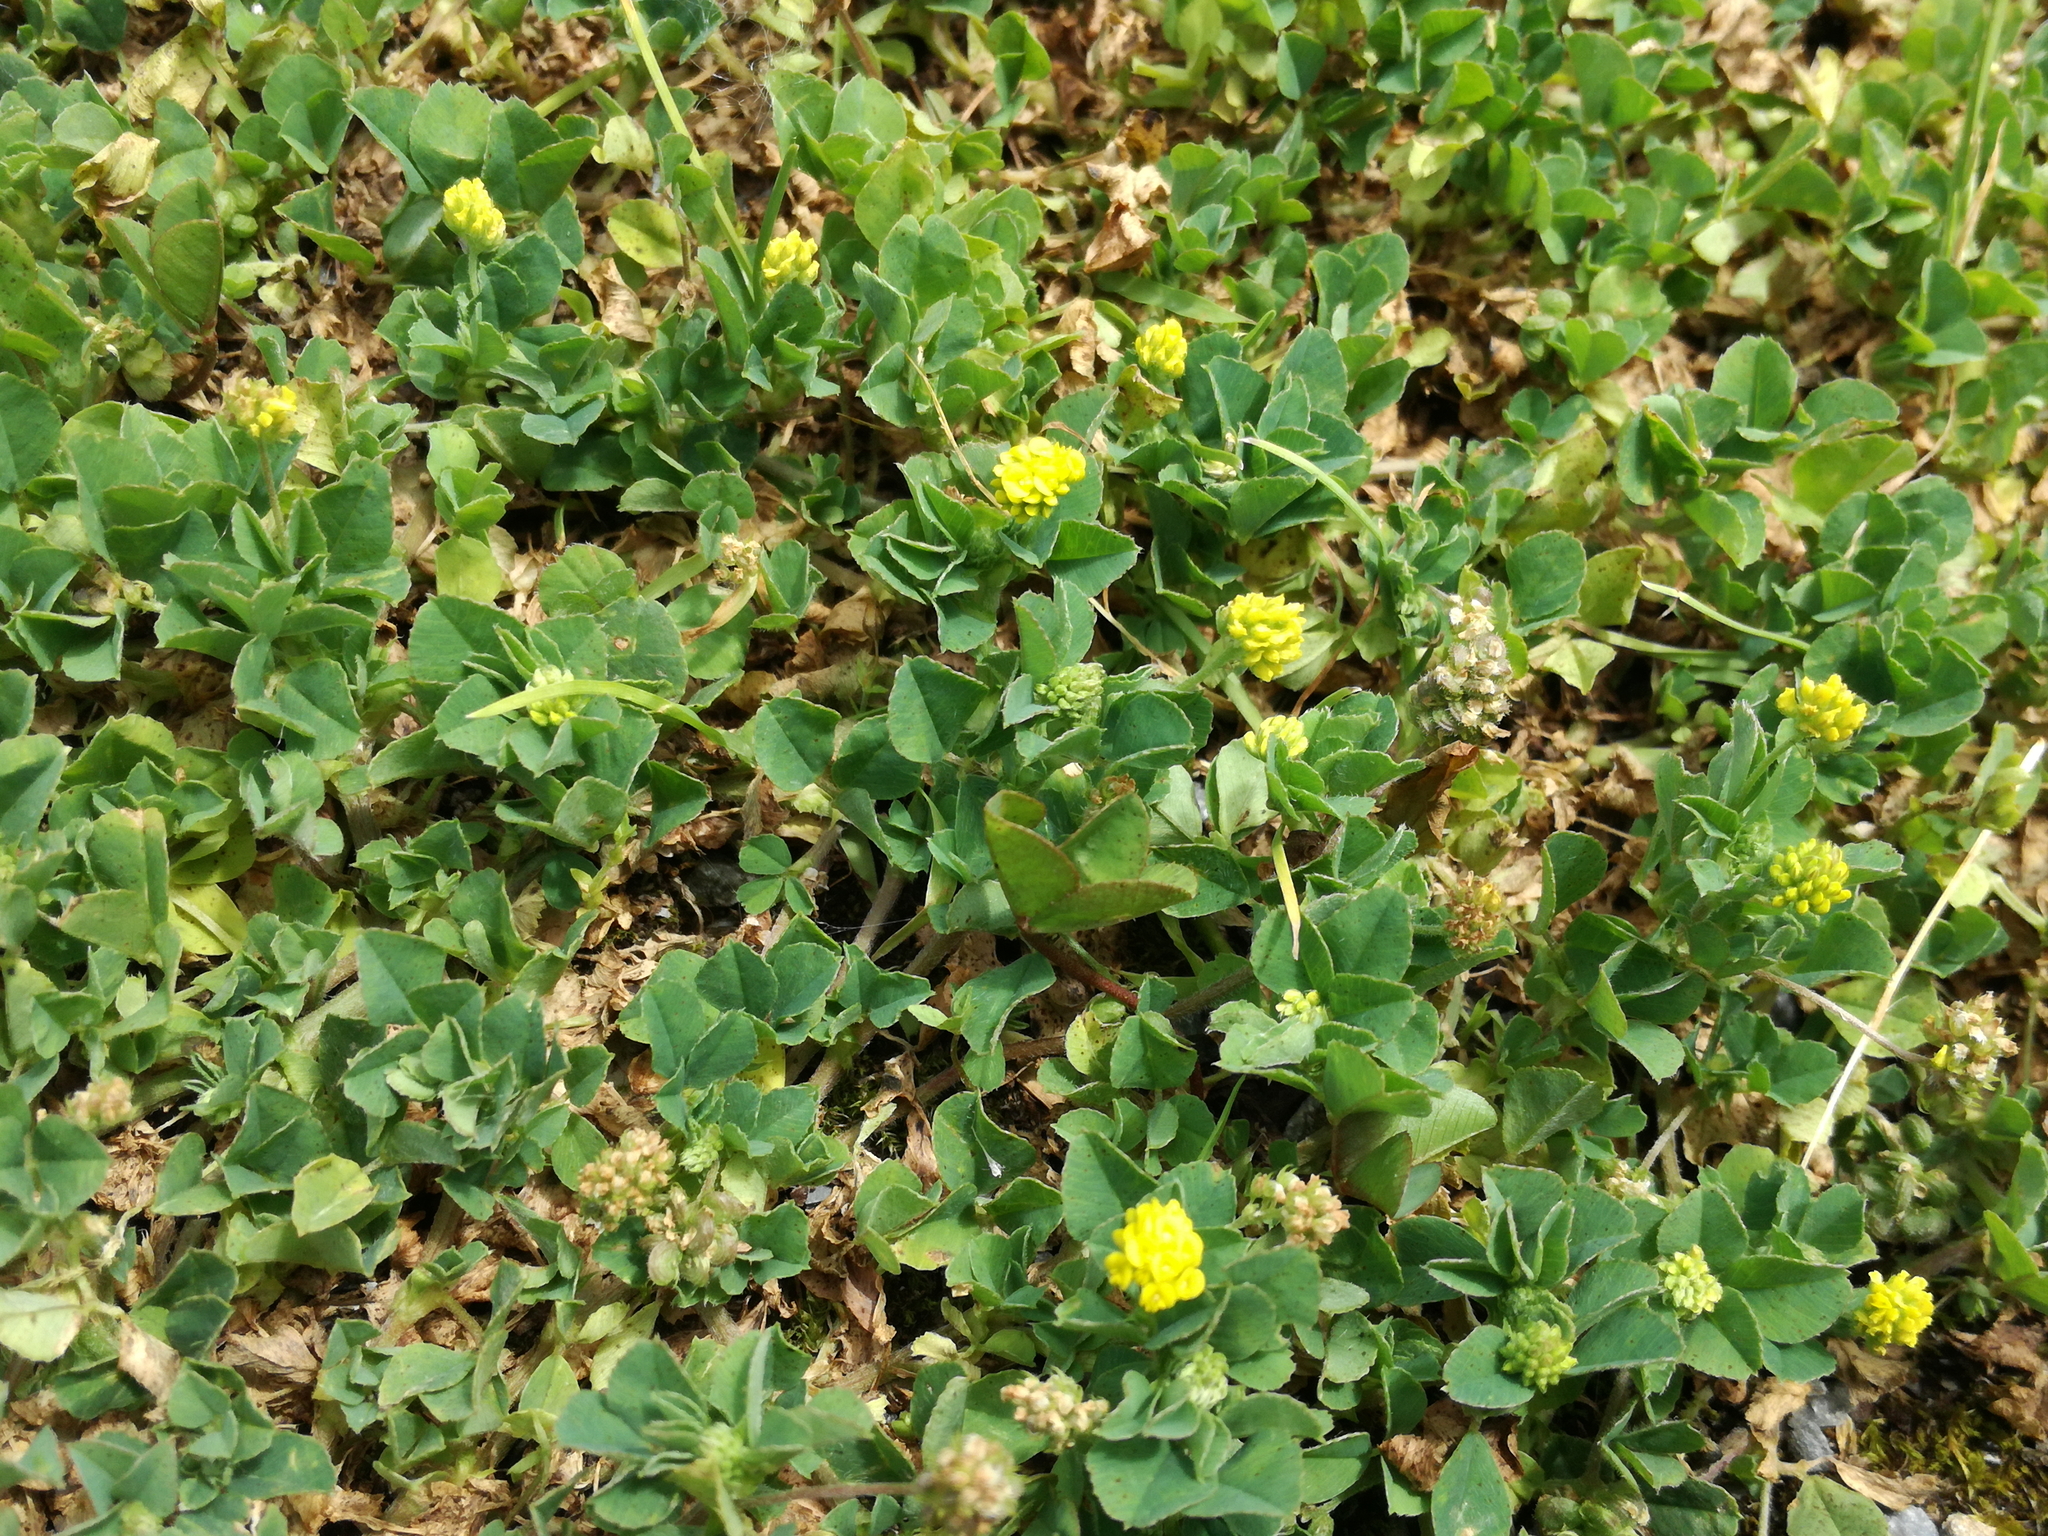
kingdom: Plantae
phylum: Tracheophyta
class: Magnoliopsida
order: Fabales
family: Fabaceae
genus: Medicago
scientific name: Medicago lupulina
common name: Black medick
